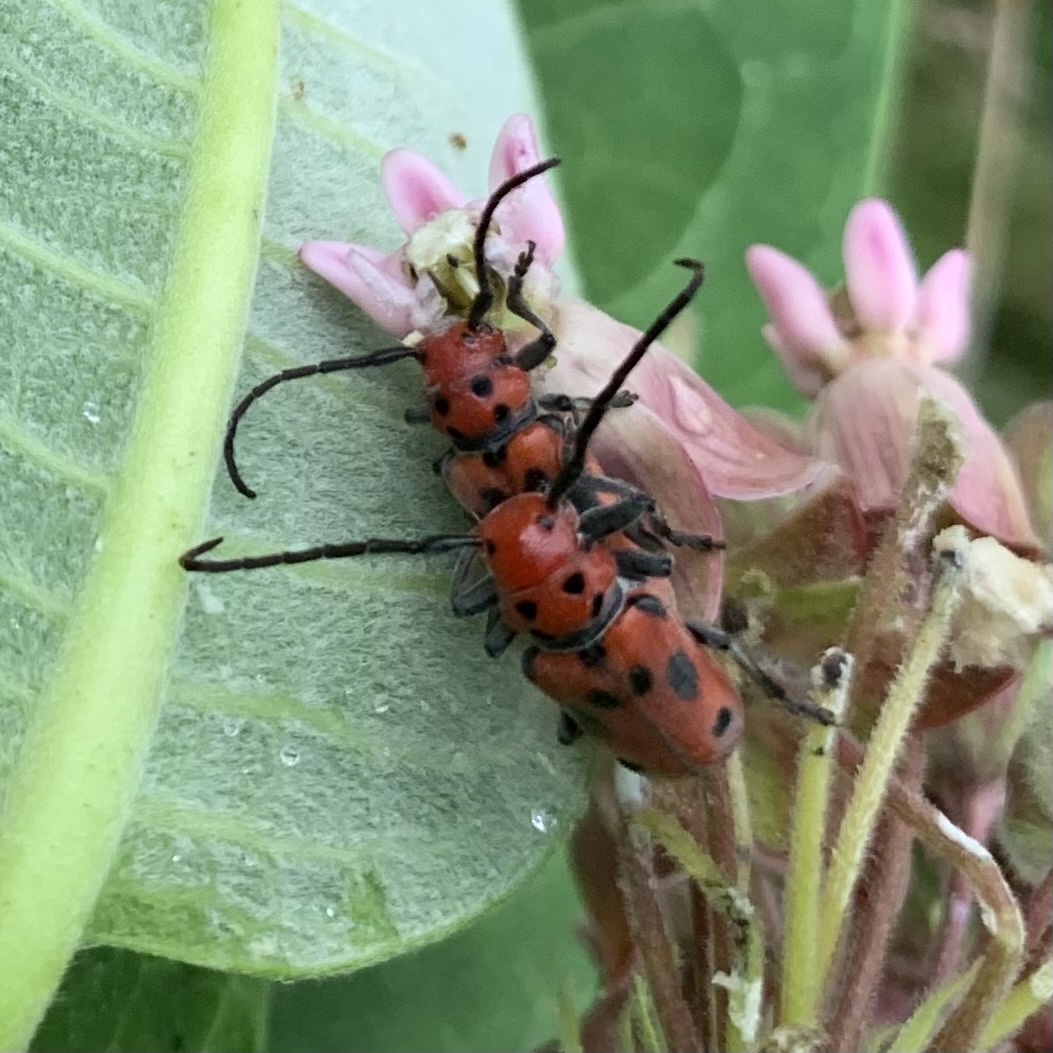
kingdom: Animalia
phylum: Arthropoda
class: Insecta
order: Coleoptera
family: Cerambycidae
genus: Tetraopes
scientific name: Tetraopes tetrophthalmus
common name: Red milkweed beetle
